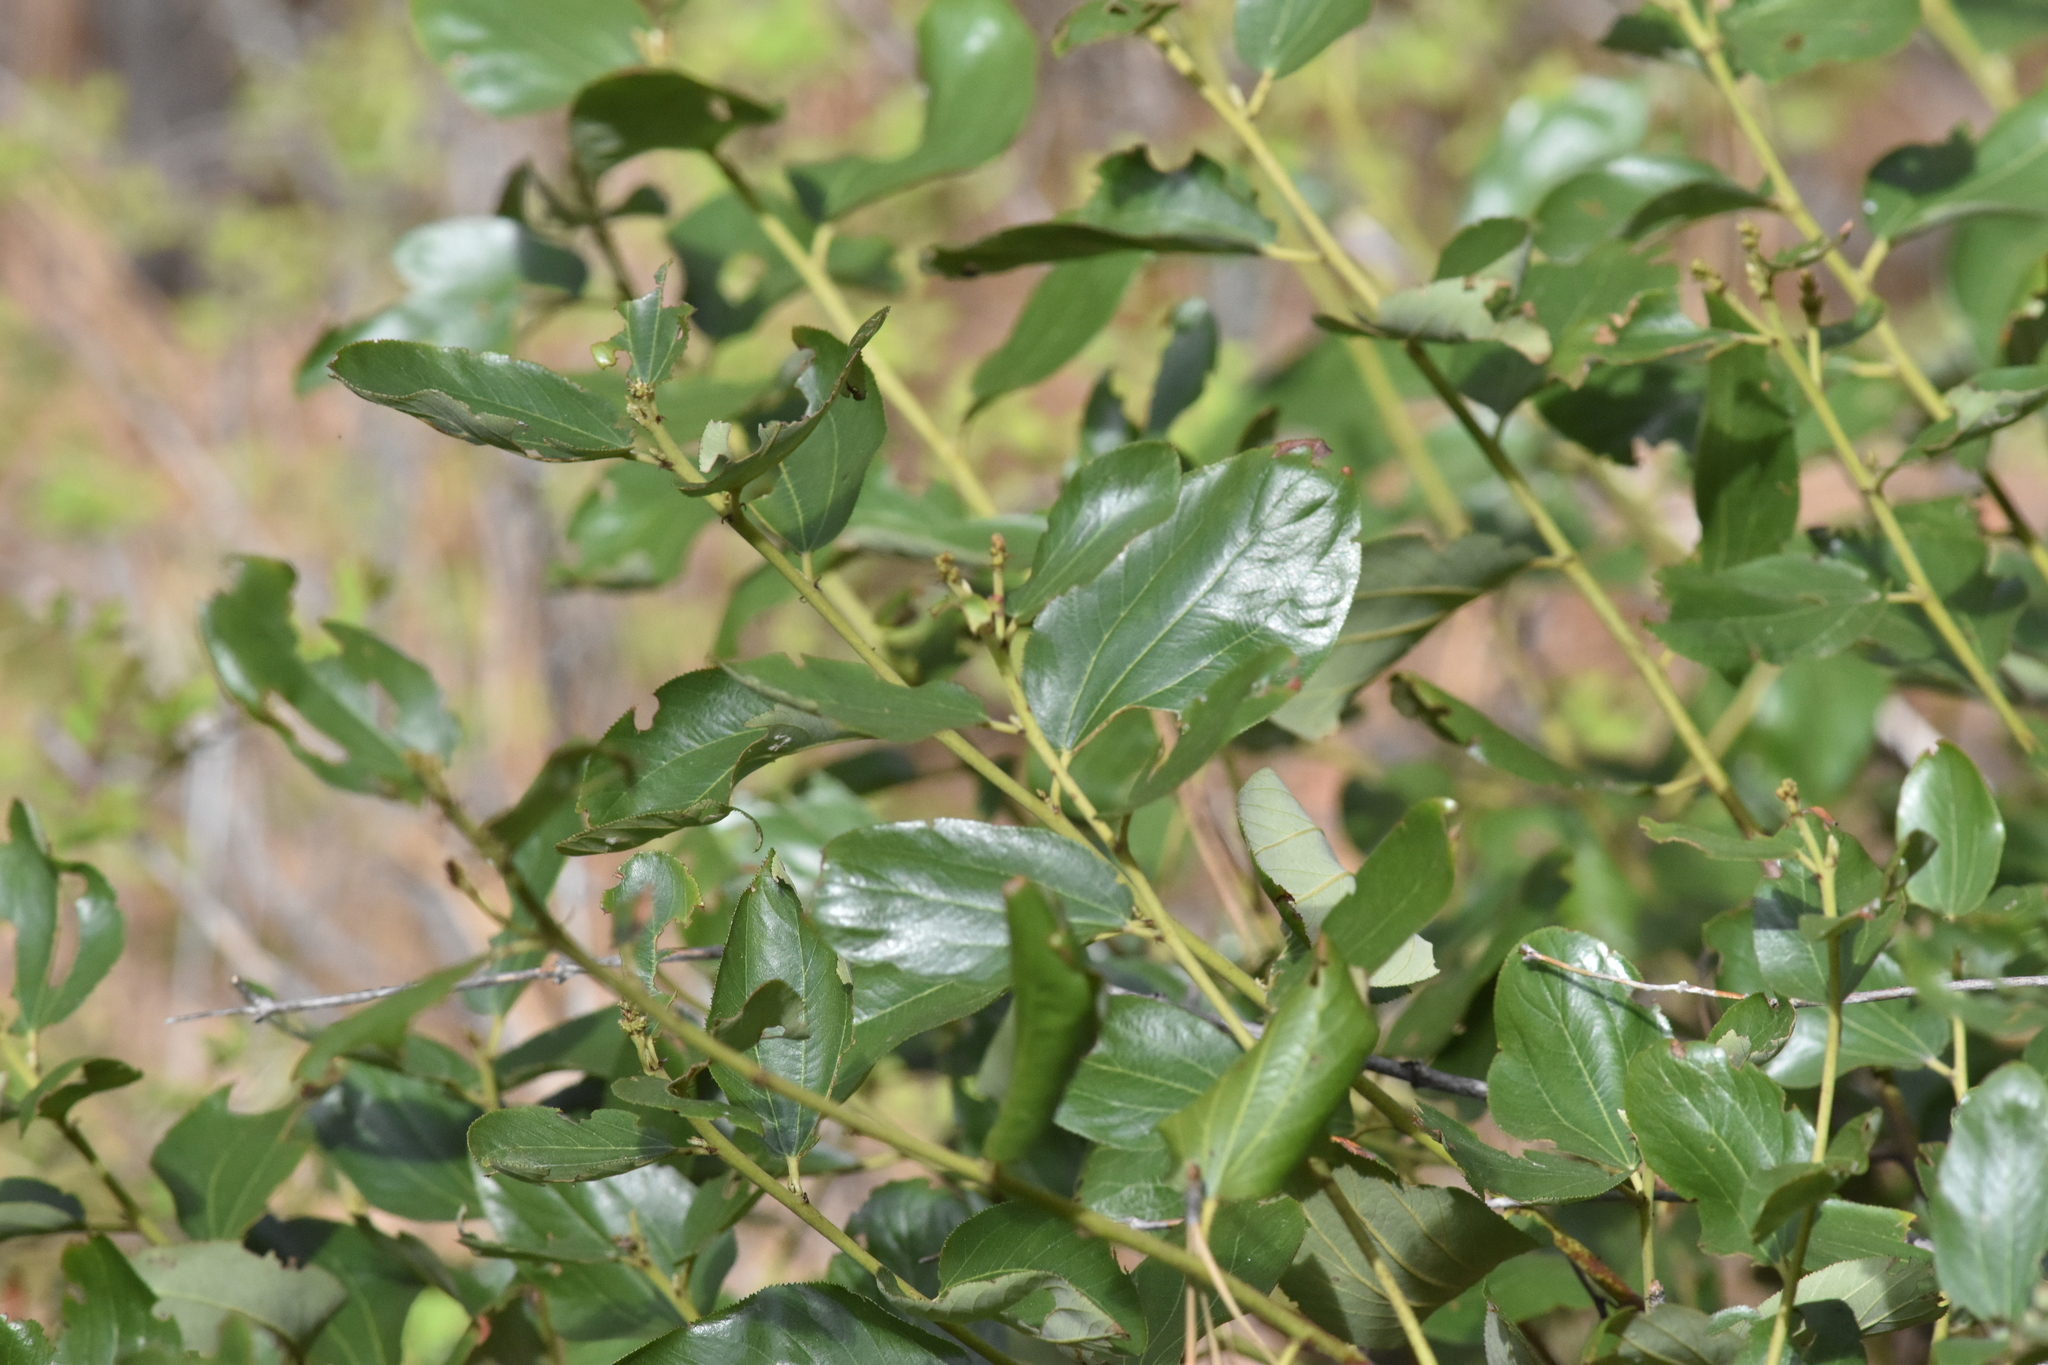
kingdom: Plantae
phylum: Tracheophyta
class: Magnoliopsida
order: Rosales
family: Rhamnaceae
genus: Ceanothus
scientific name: Ceanothus velutinus
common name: Snowbrush
